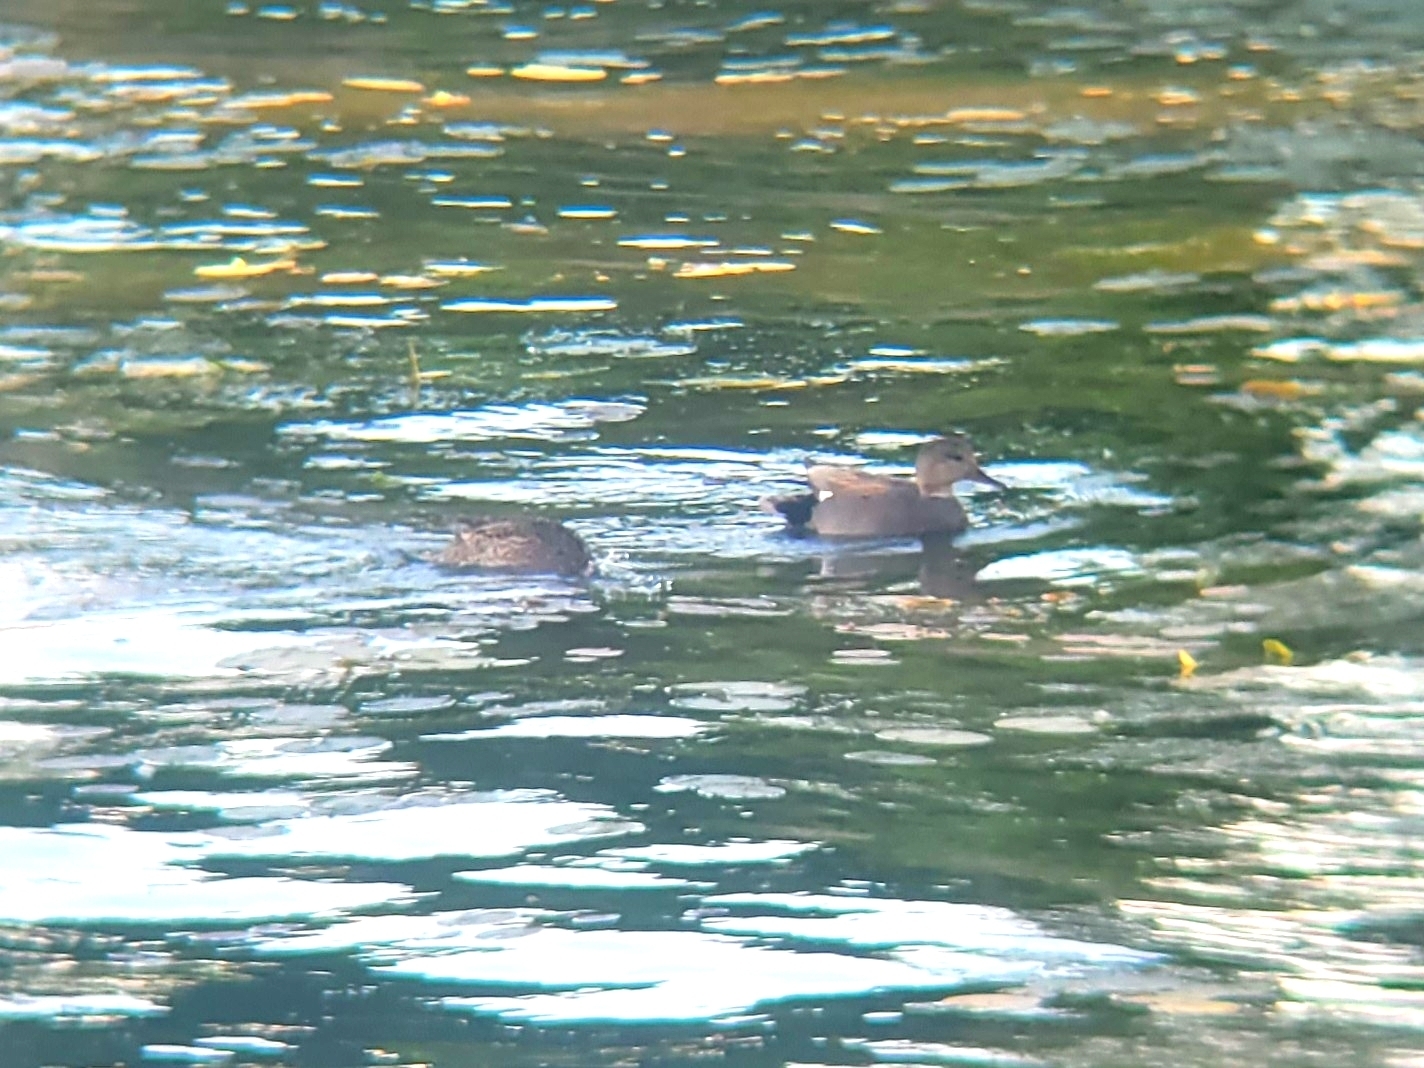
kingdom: Animalia
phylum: Chordata
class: Aves
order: Anseriformes
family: Anatidae
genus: Mareca
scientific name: Mareca strepera
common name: Gadwall
